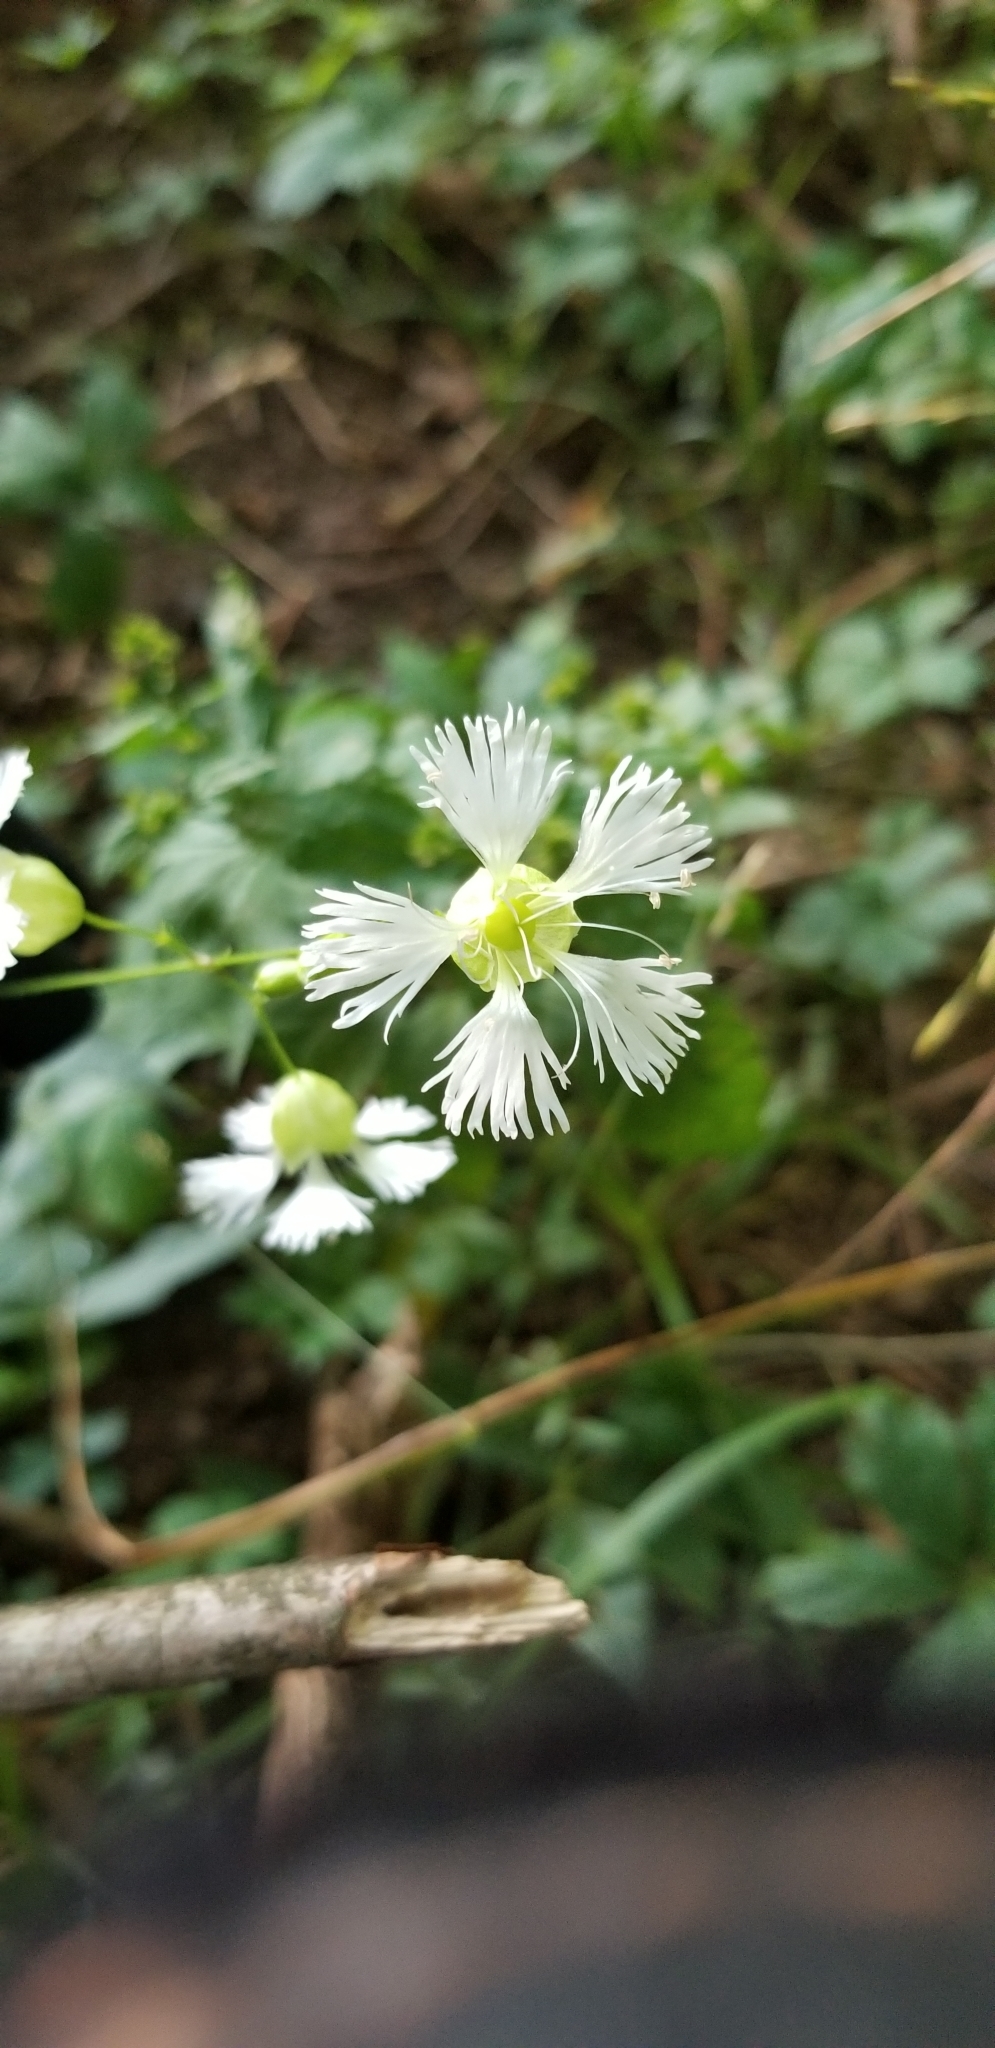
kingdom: Plantae
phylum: Tracheophyta
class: Magnoliopsida
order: Caryophyllales
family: Caryophyllaceae
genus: Silene
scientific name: Silene stellata
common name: Starry campion
